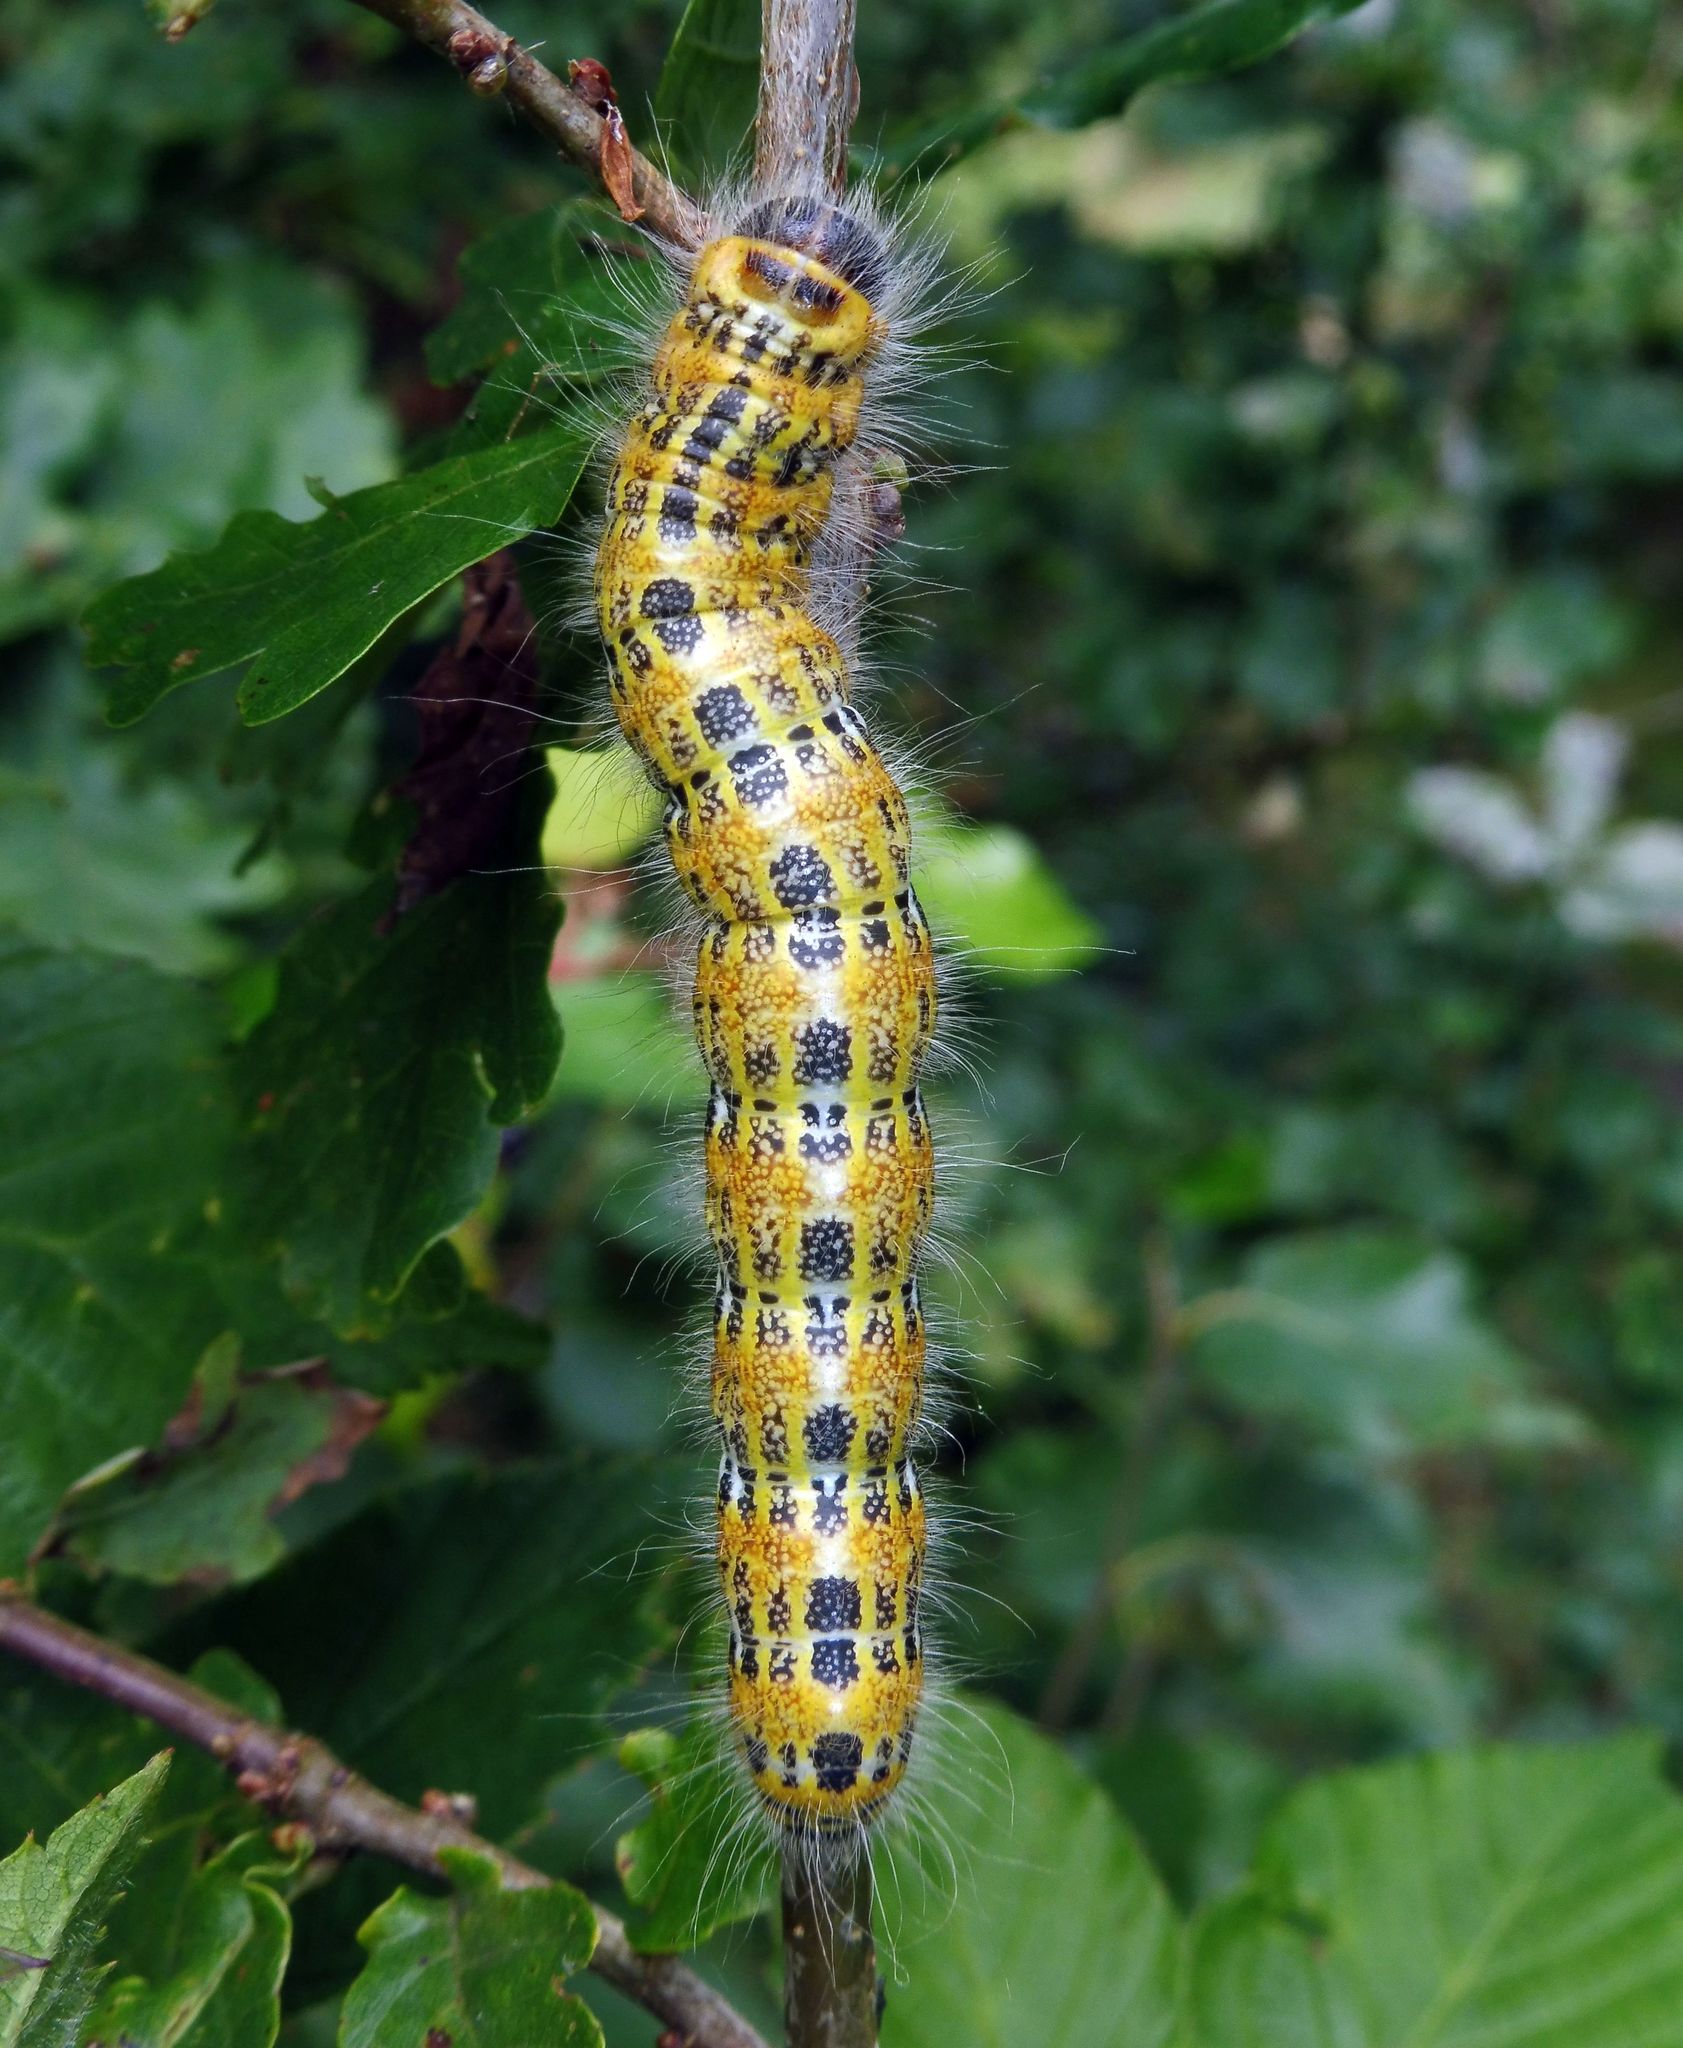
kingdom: Animalia
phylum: Arthropoda
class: Insecta
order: Lepidoptera
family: Notodontidae
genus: Phalera
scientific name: Phalera bucephala
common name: Buff-tip
